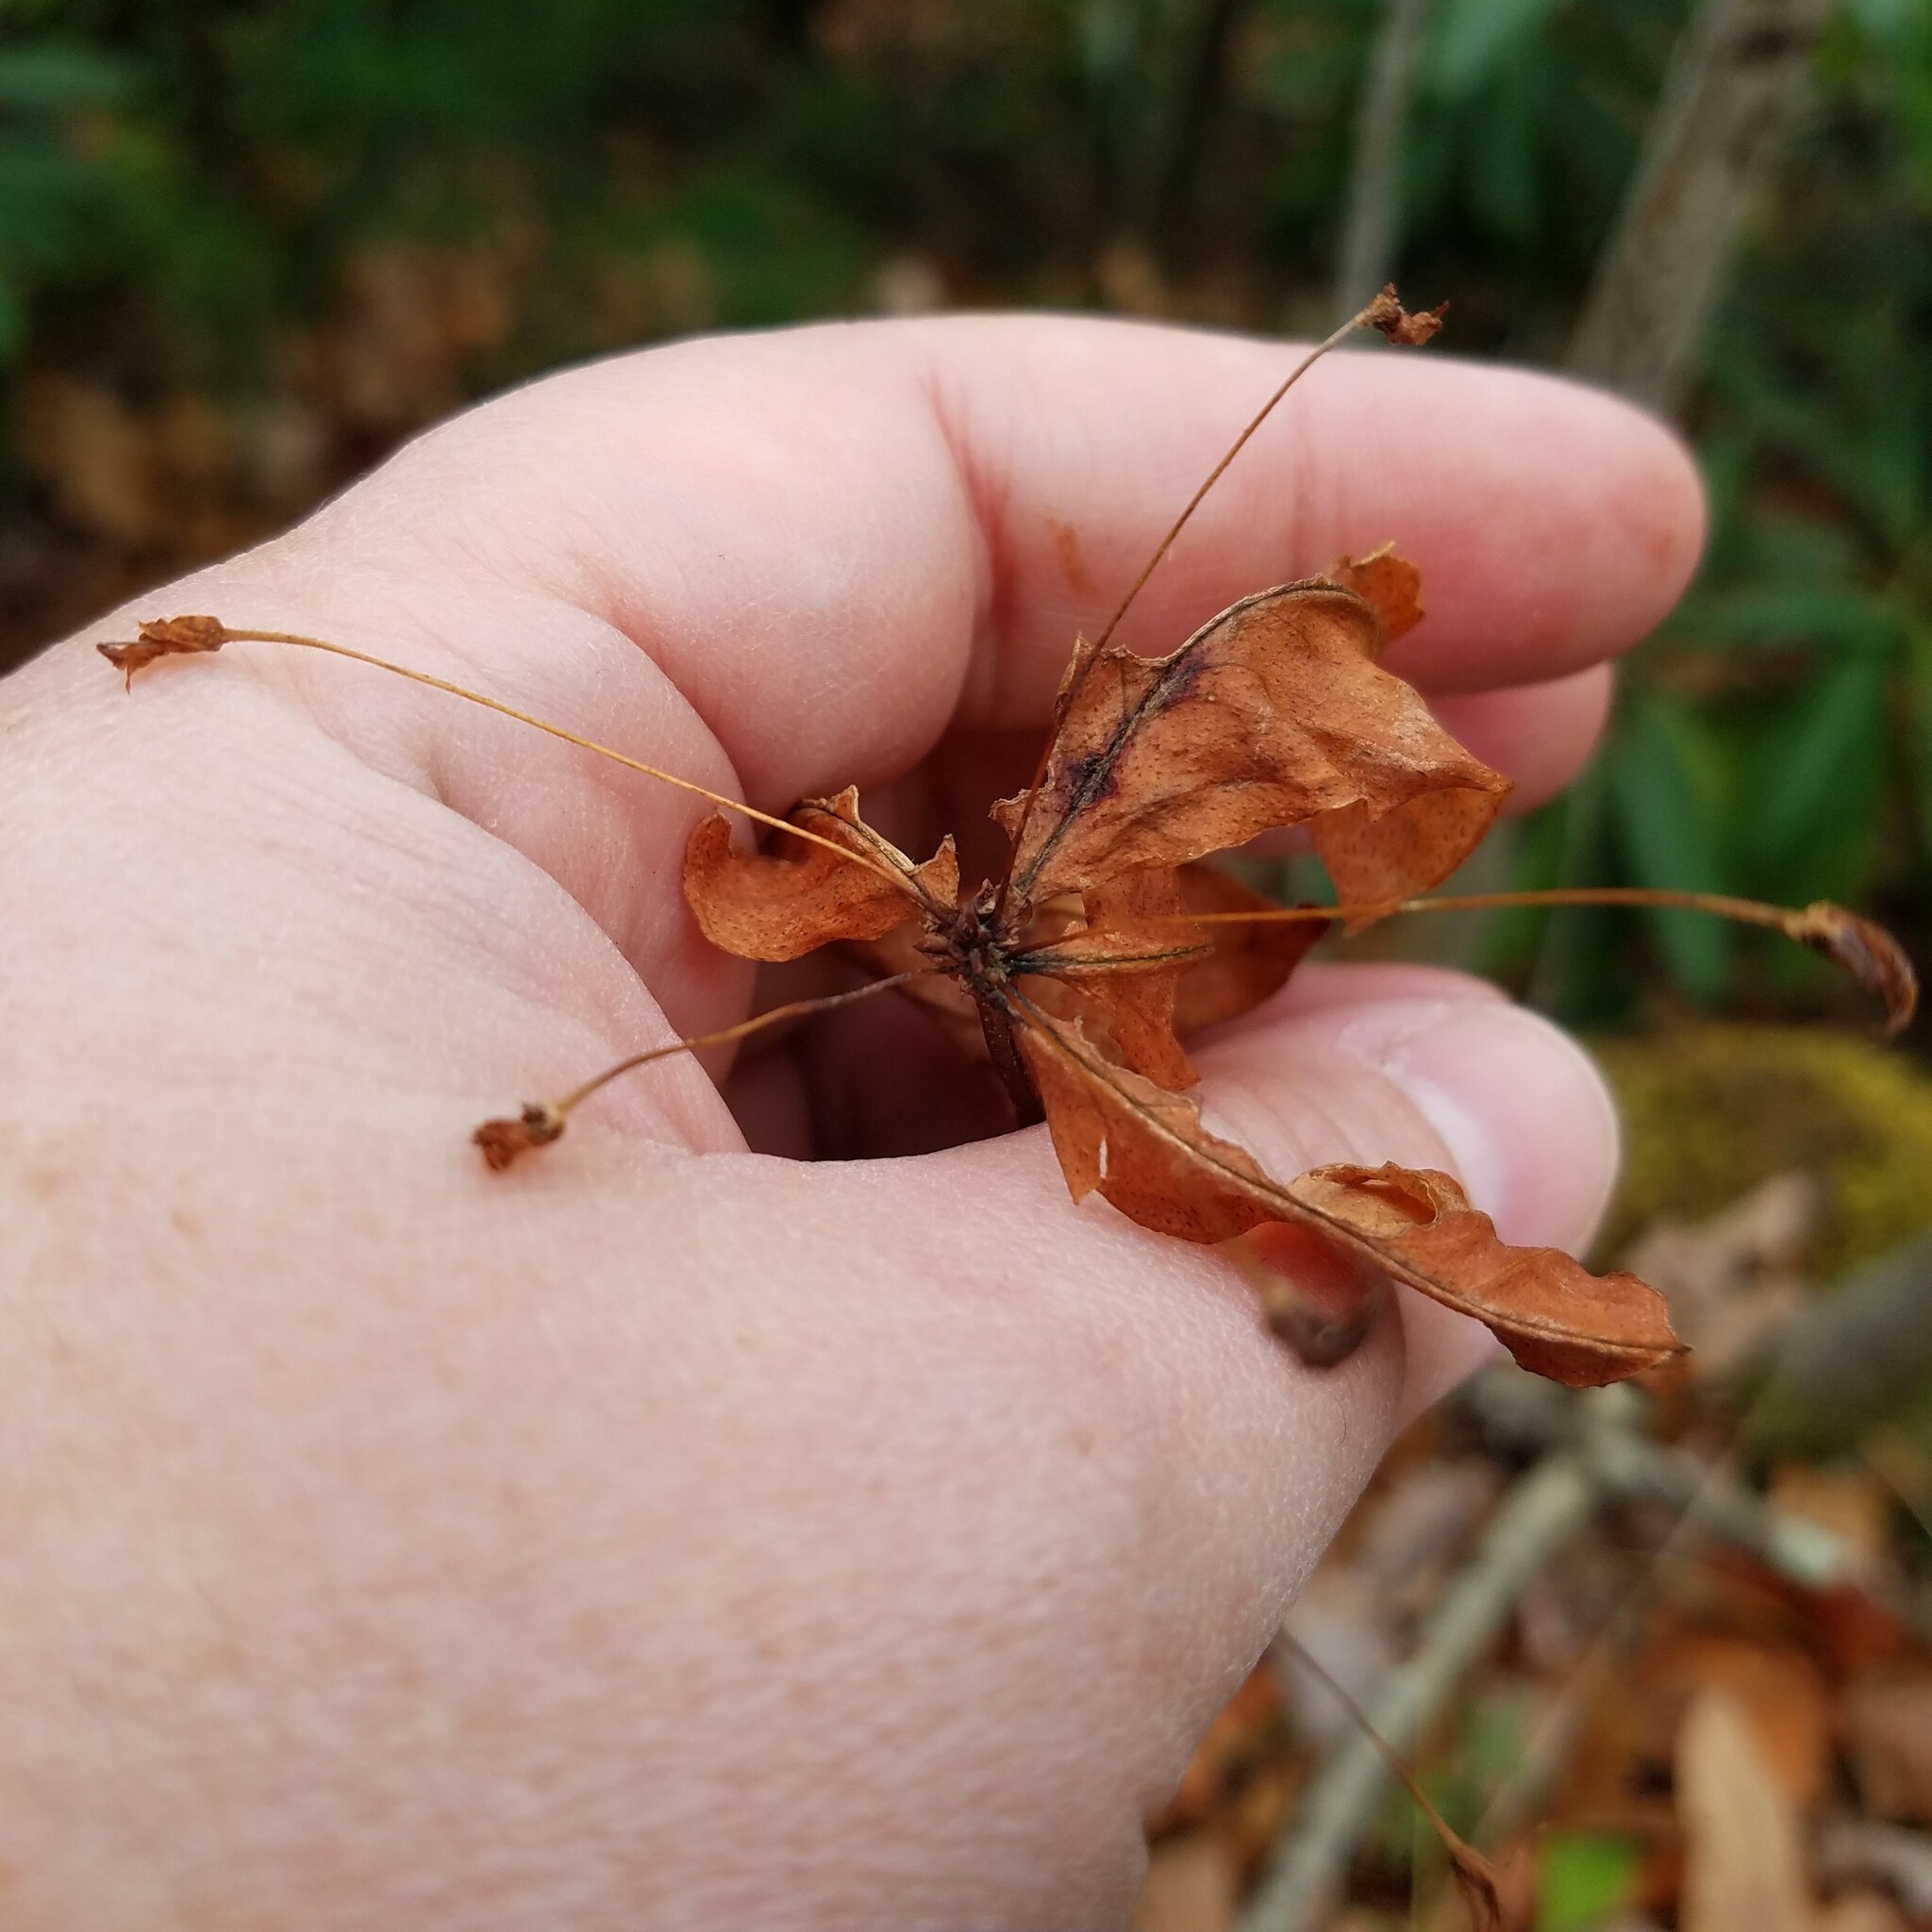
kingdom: Plantae
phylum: Tracheophyta
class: Magnoliopsida
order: Ericales
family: Primulaceae
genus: Lysimachia
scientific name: Lysimachia quadrifolia
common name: Whorled loosestrife
